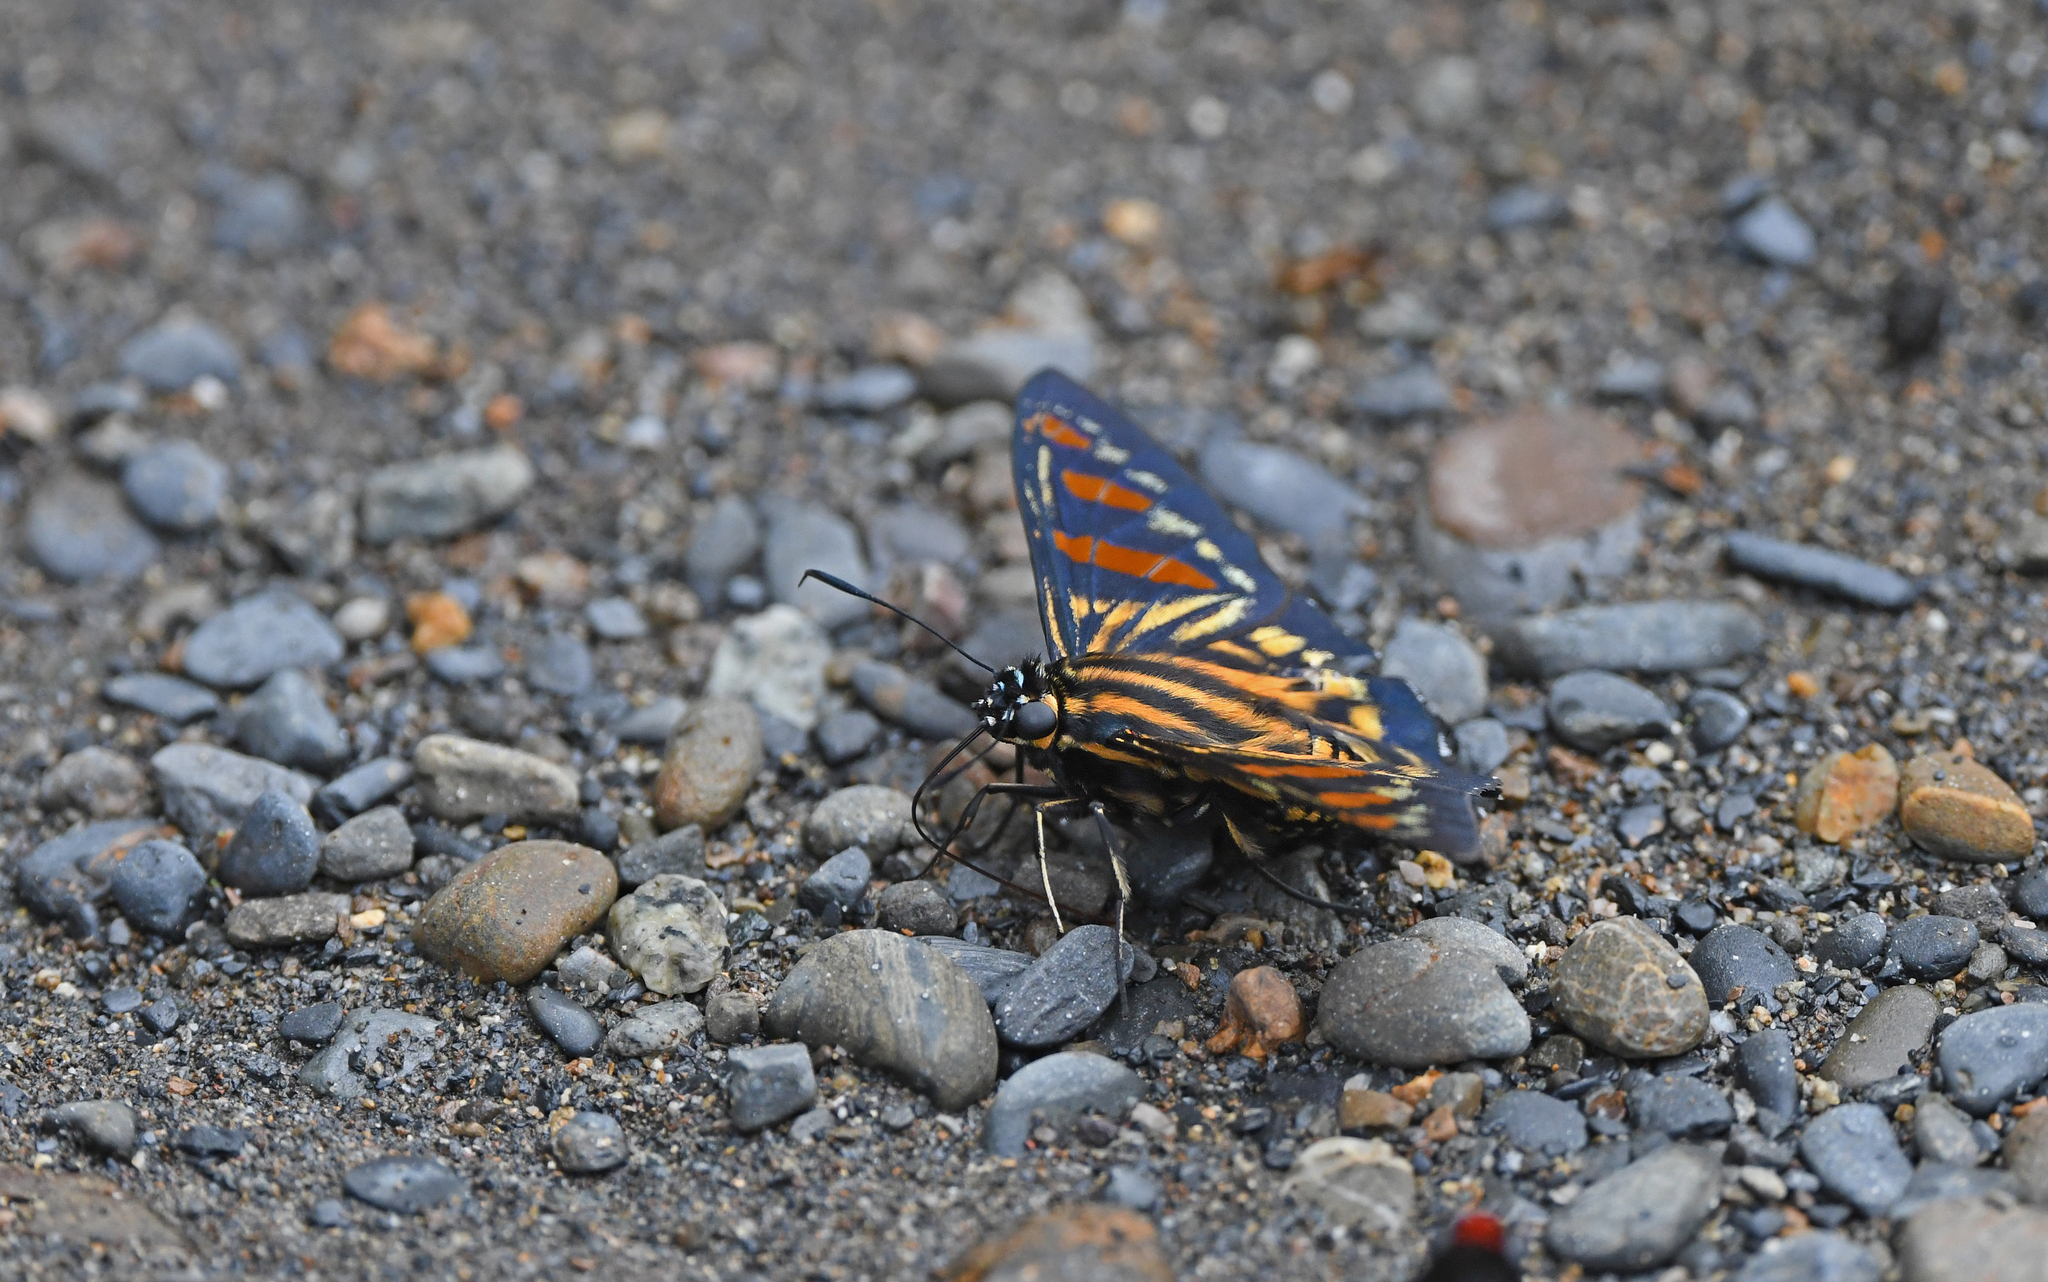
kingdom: Animalia
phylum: Arthropoda
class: Insecta
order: Lepidoptera
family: Hesperiidae
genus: Phocides
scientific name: Phocides yokhara
